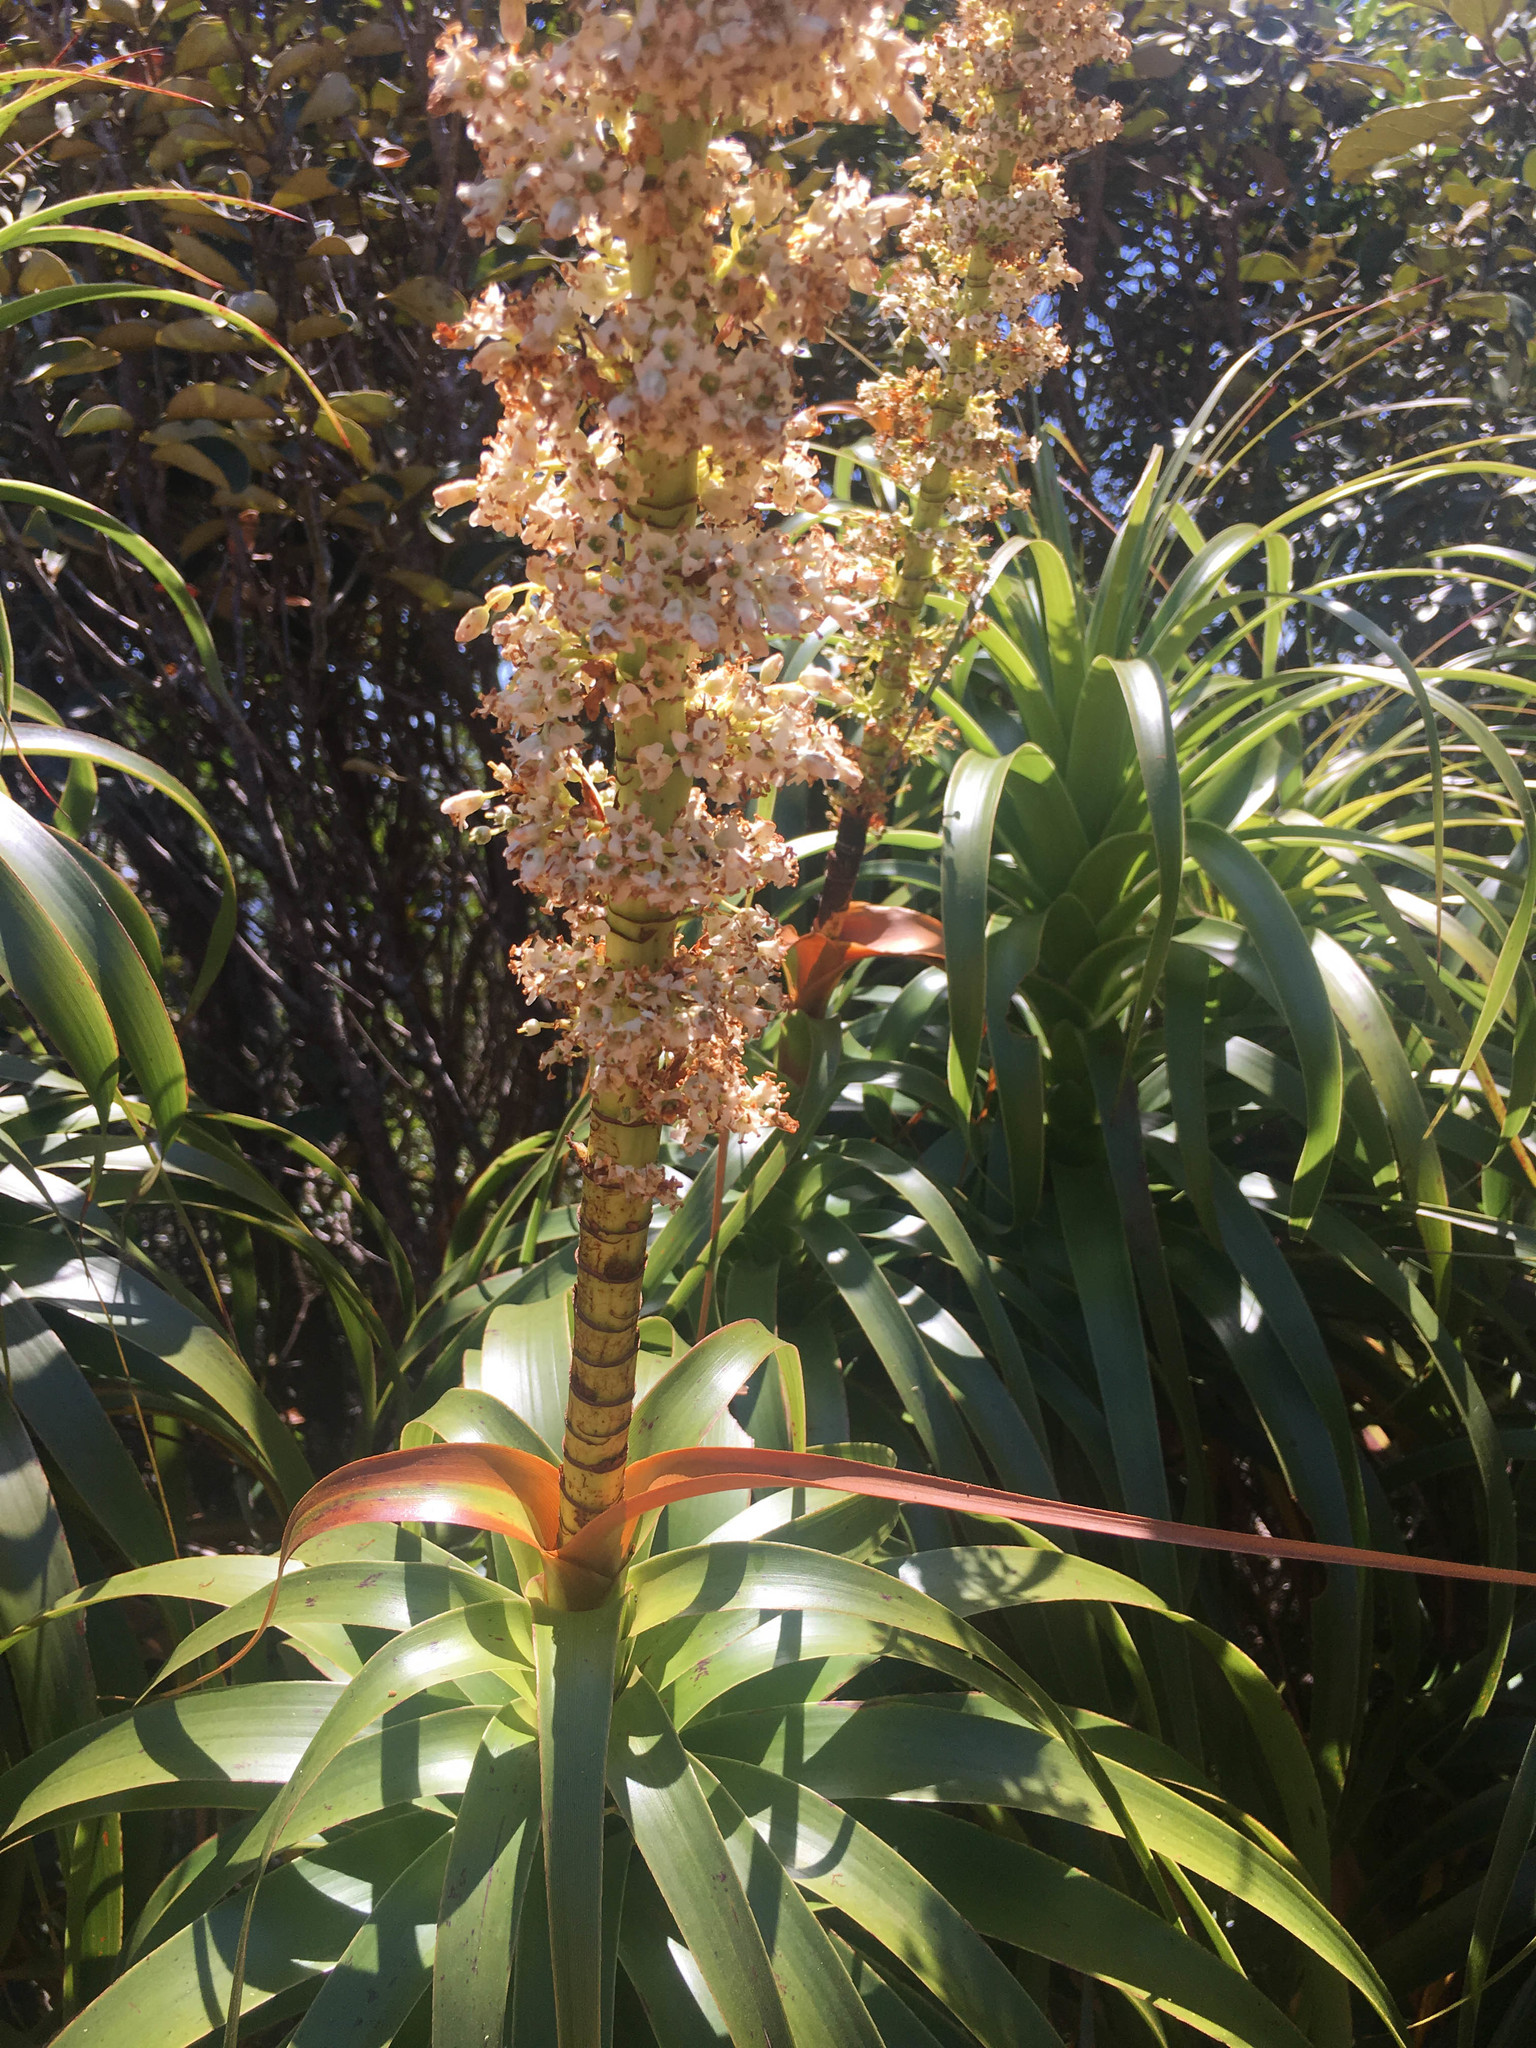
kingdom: Plantae
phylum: Tracheophyta
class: Magnoliopsida
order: Ericales
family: Ericaceae
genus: Dracophyllum
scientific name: Dracophyllum verticillatum
